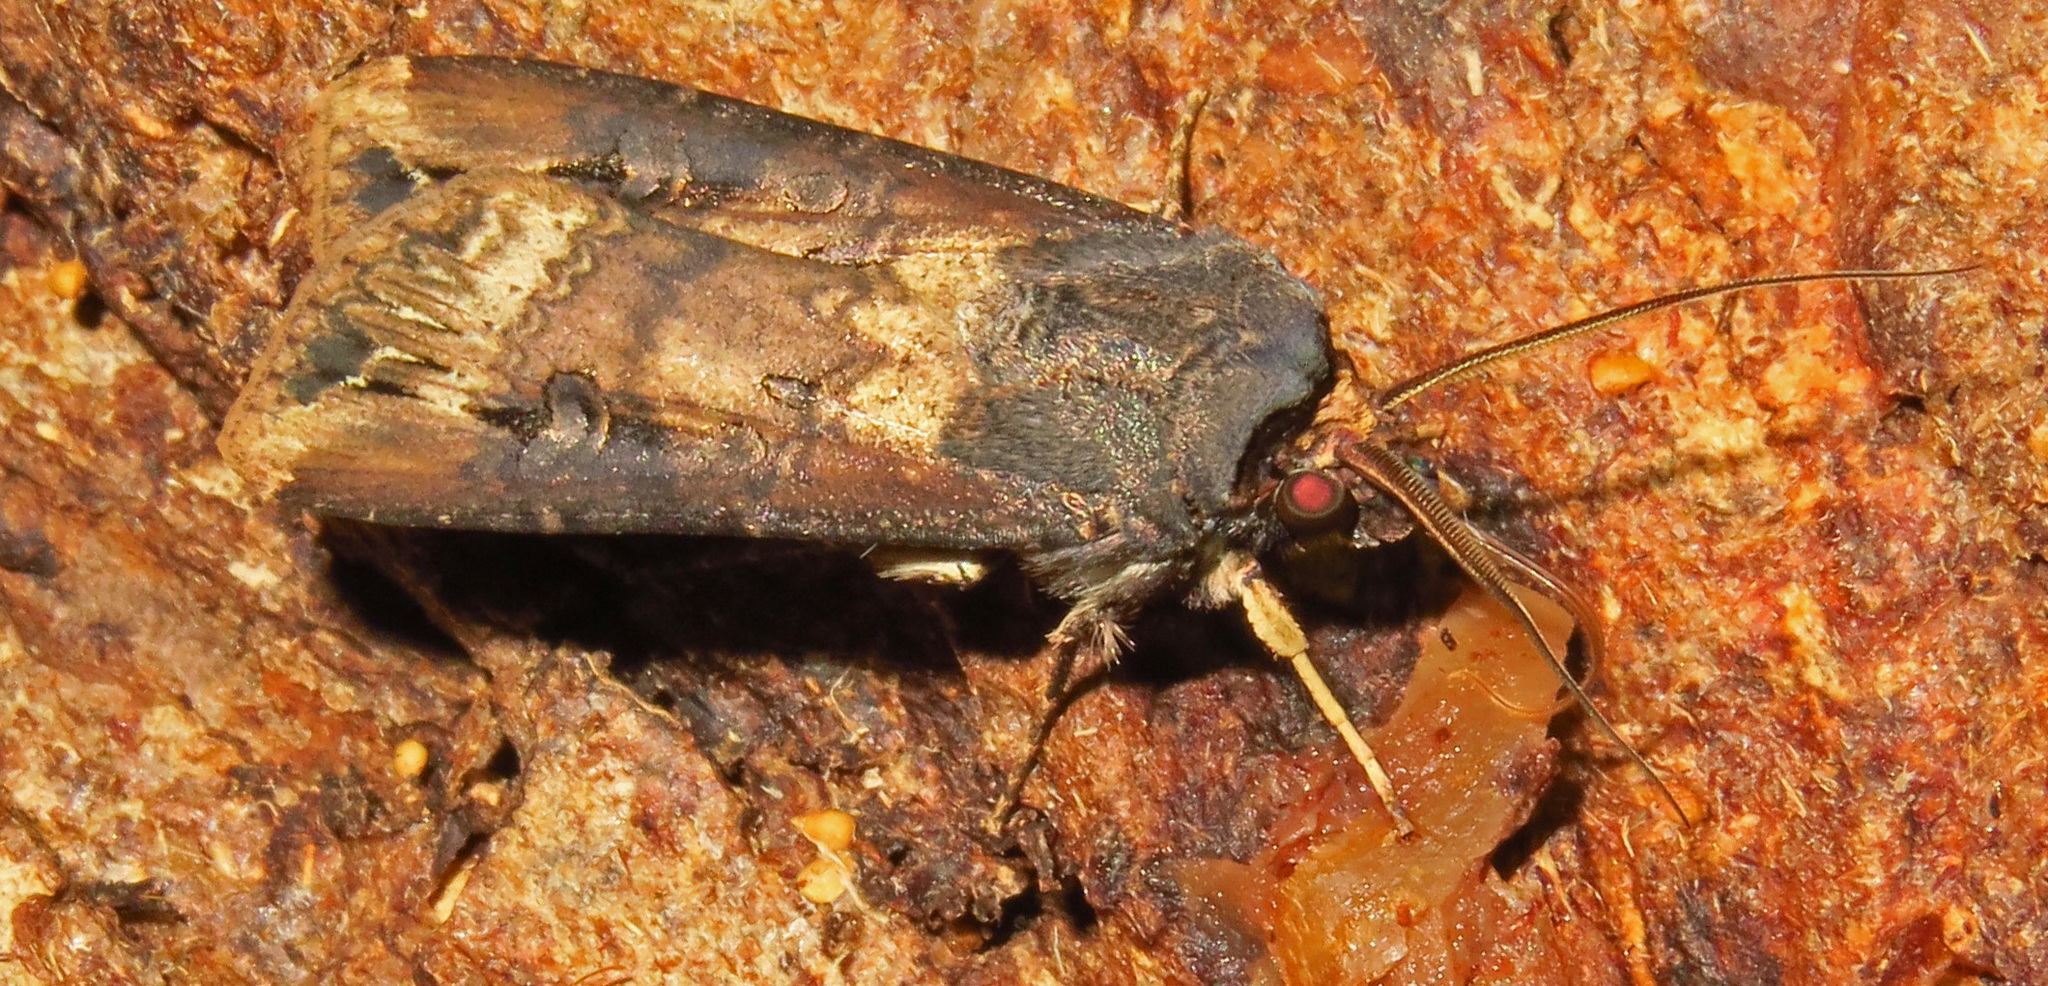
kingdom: Animalia
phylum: Arthropoda
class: Insecta
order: Lepidoptera
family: Noctuidae
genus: Agrotis
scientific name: Agrotis ipsilon
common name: Dark sword-grass
